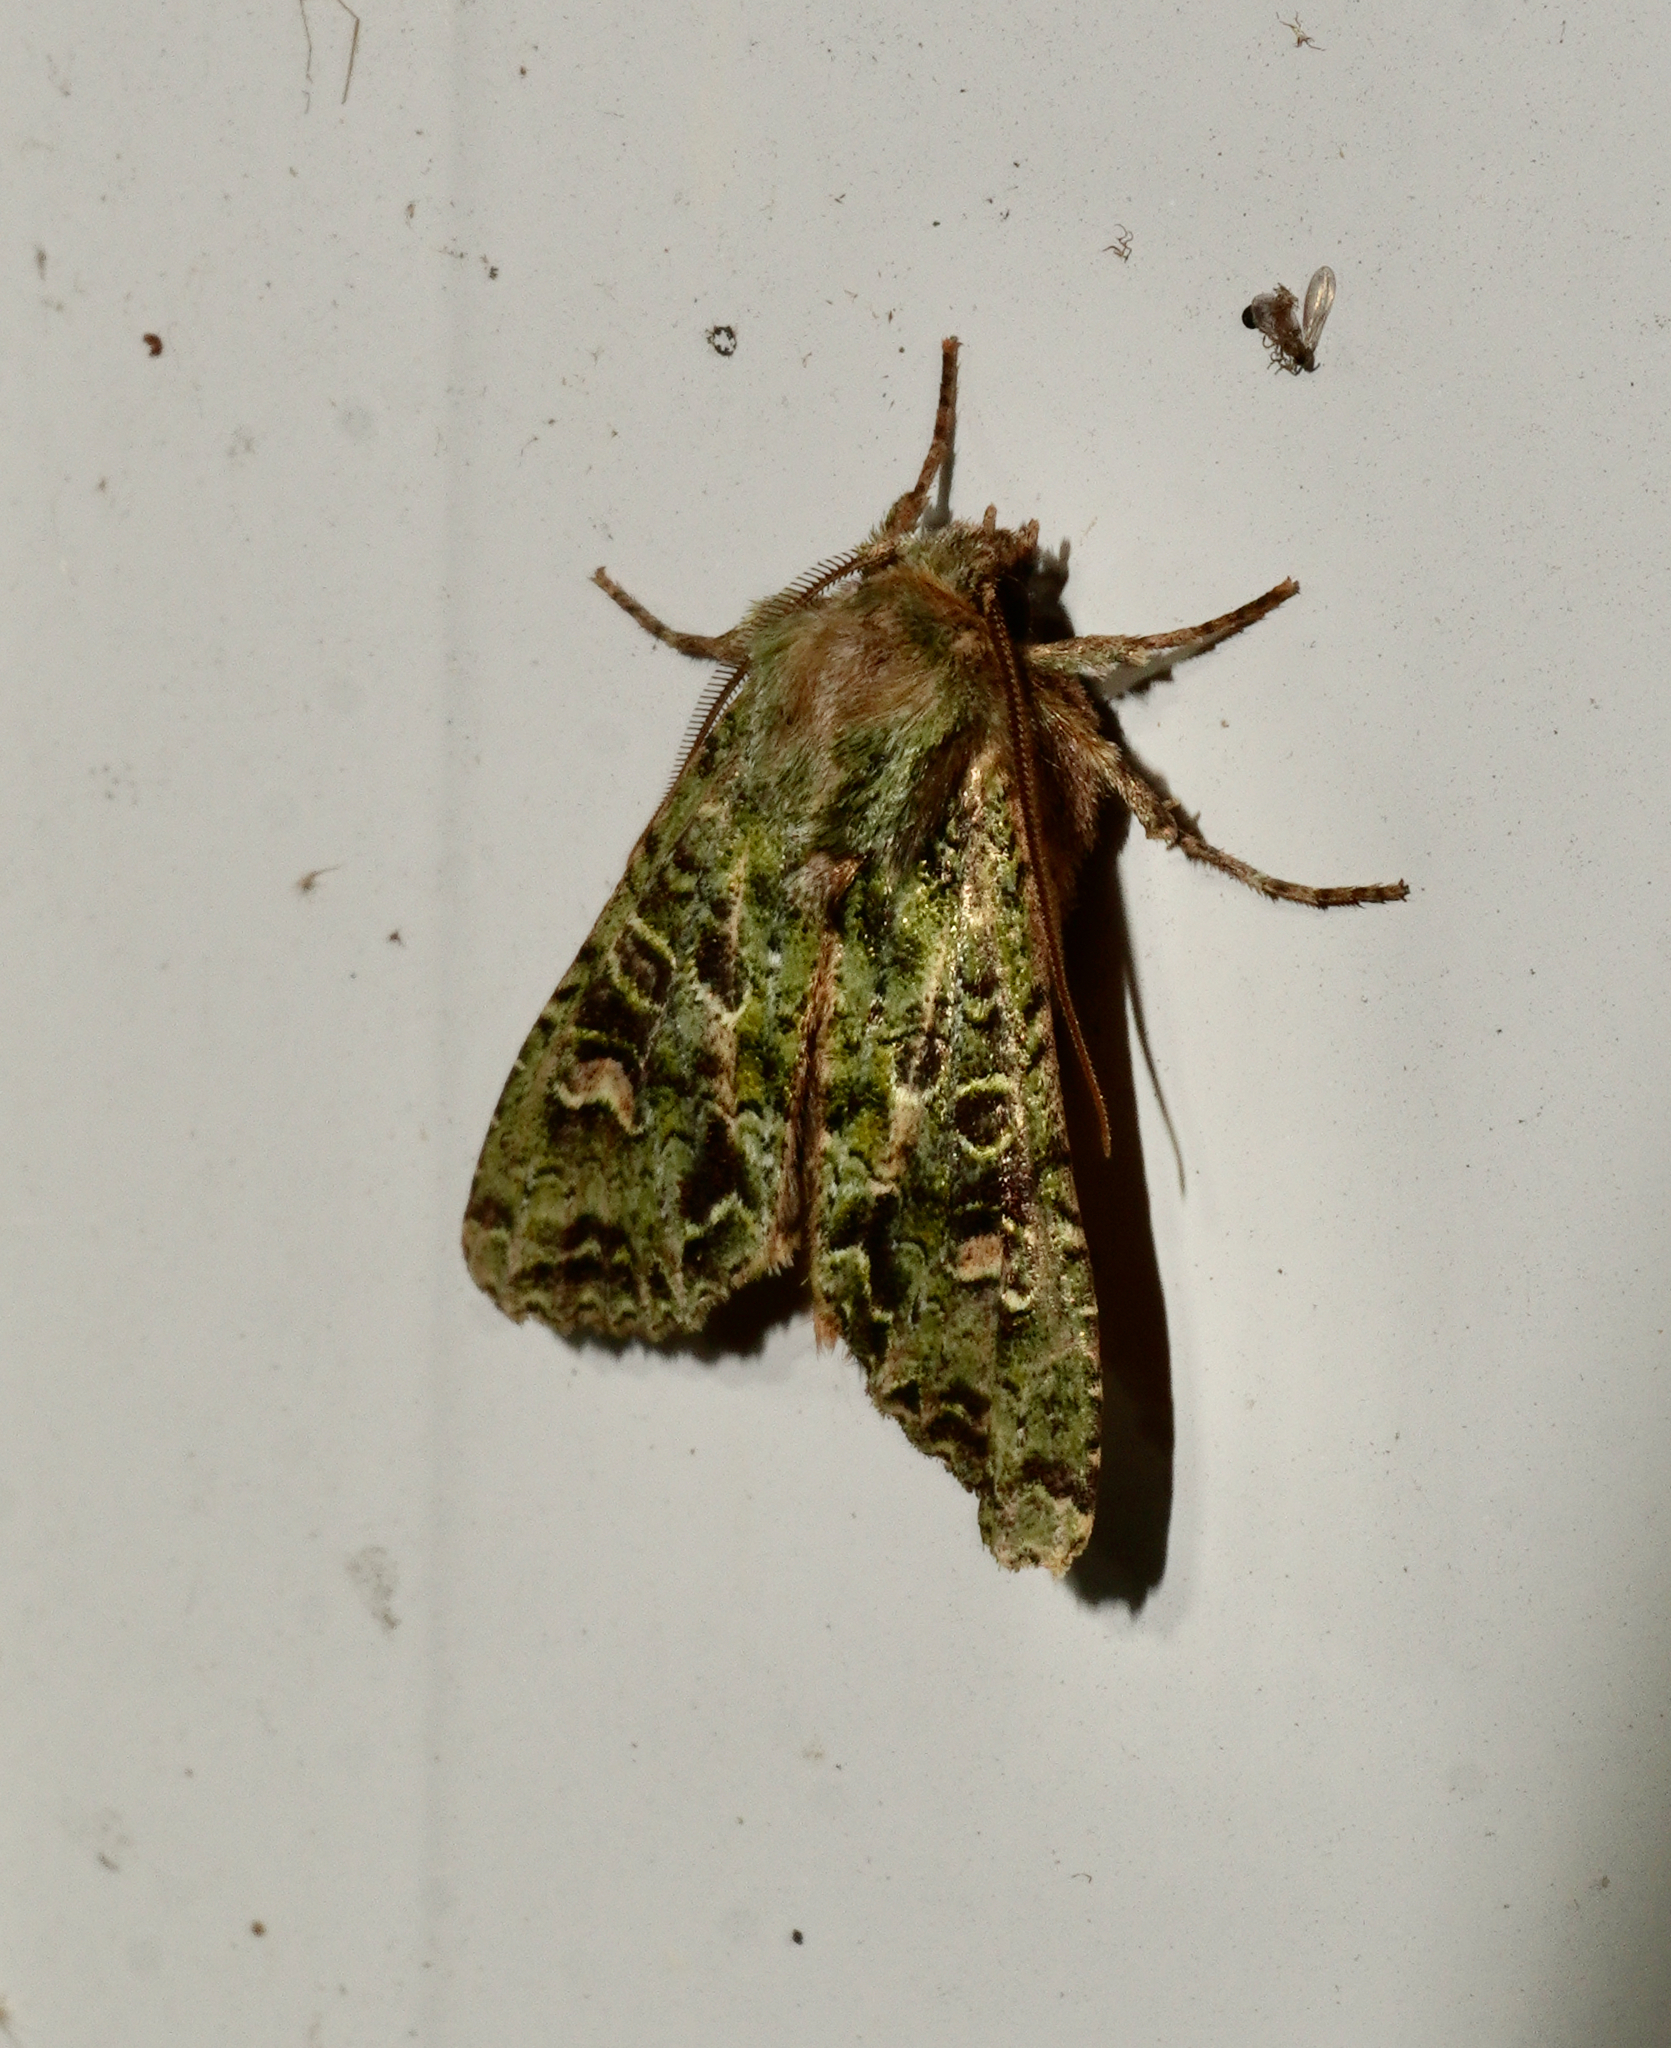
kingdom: Animalia
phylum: Arthropoda
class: Insecta
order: Lepidoptera
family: Noctuidae
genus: Ichneutica
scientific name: Ichneutica
